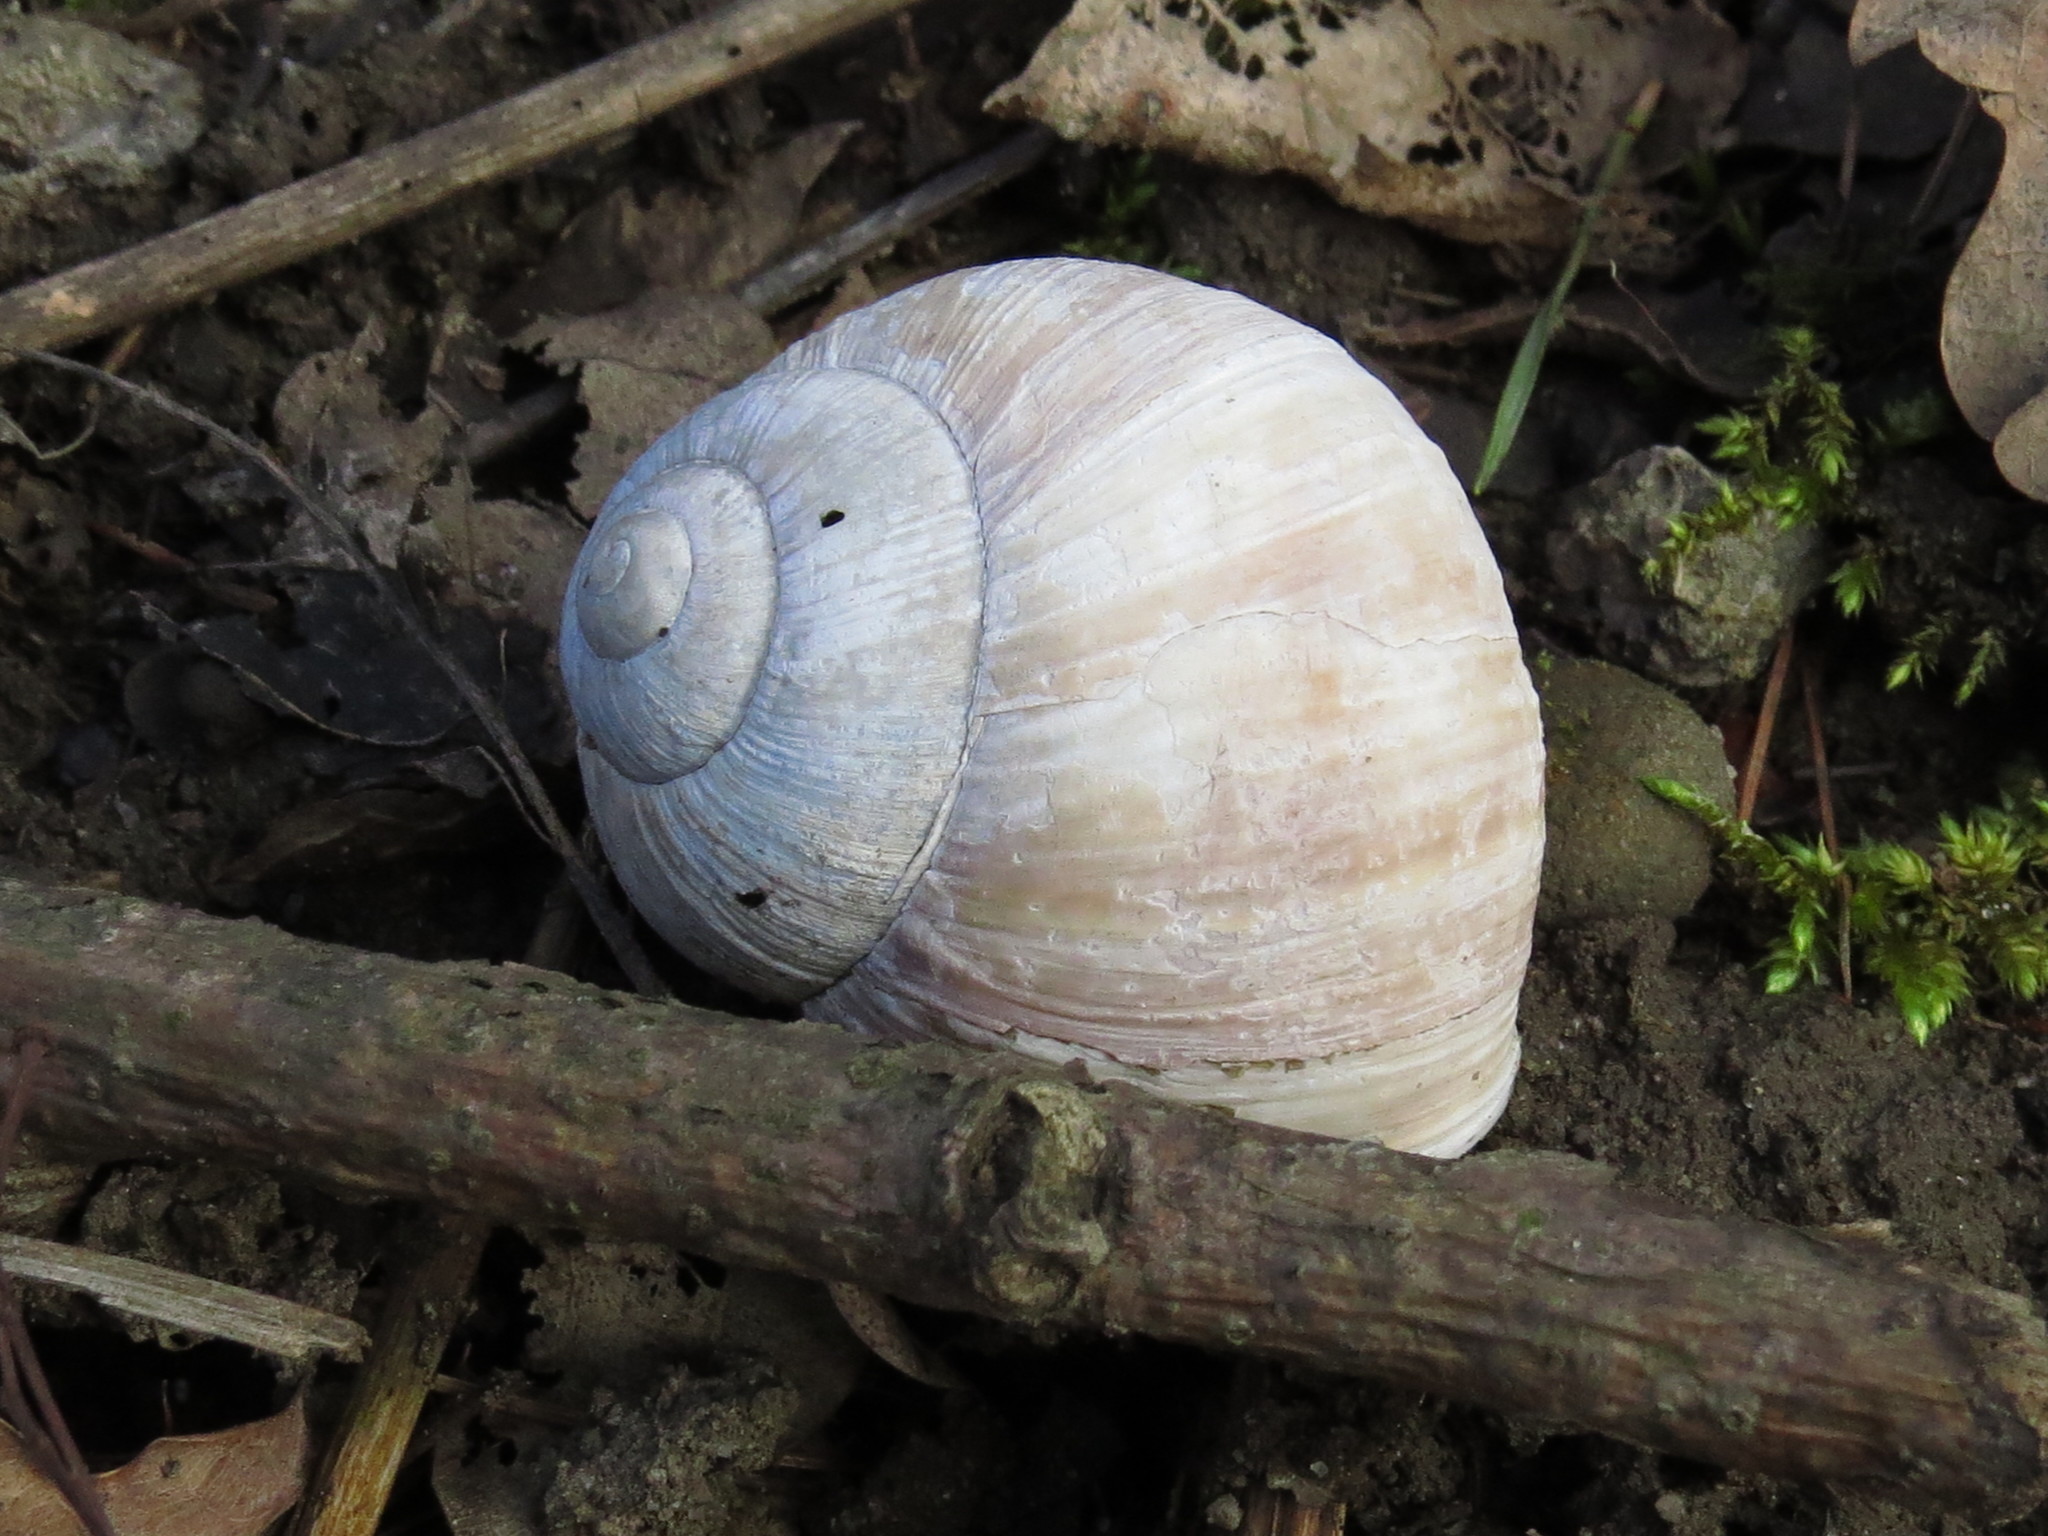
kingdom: Animalia
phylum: Mollusca
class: Gastropoda
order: Stylommatophora
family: Helicidae
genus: Helix
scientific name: Helix pomatia
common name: Roman snail
